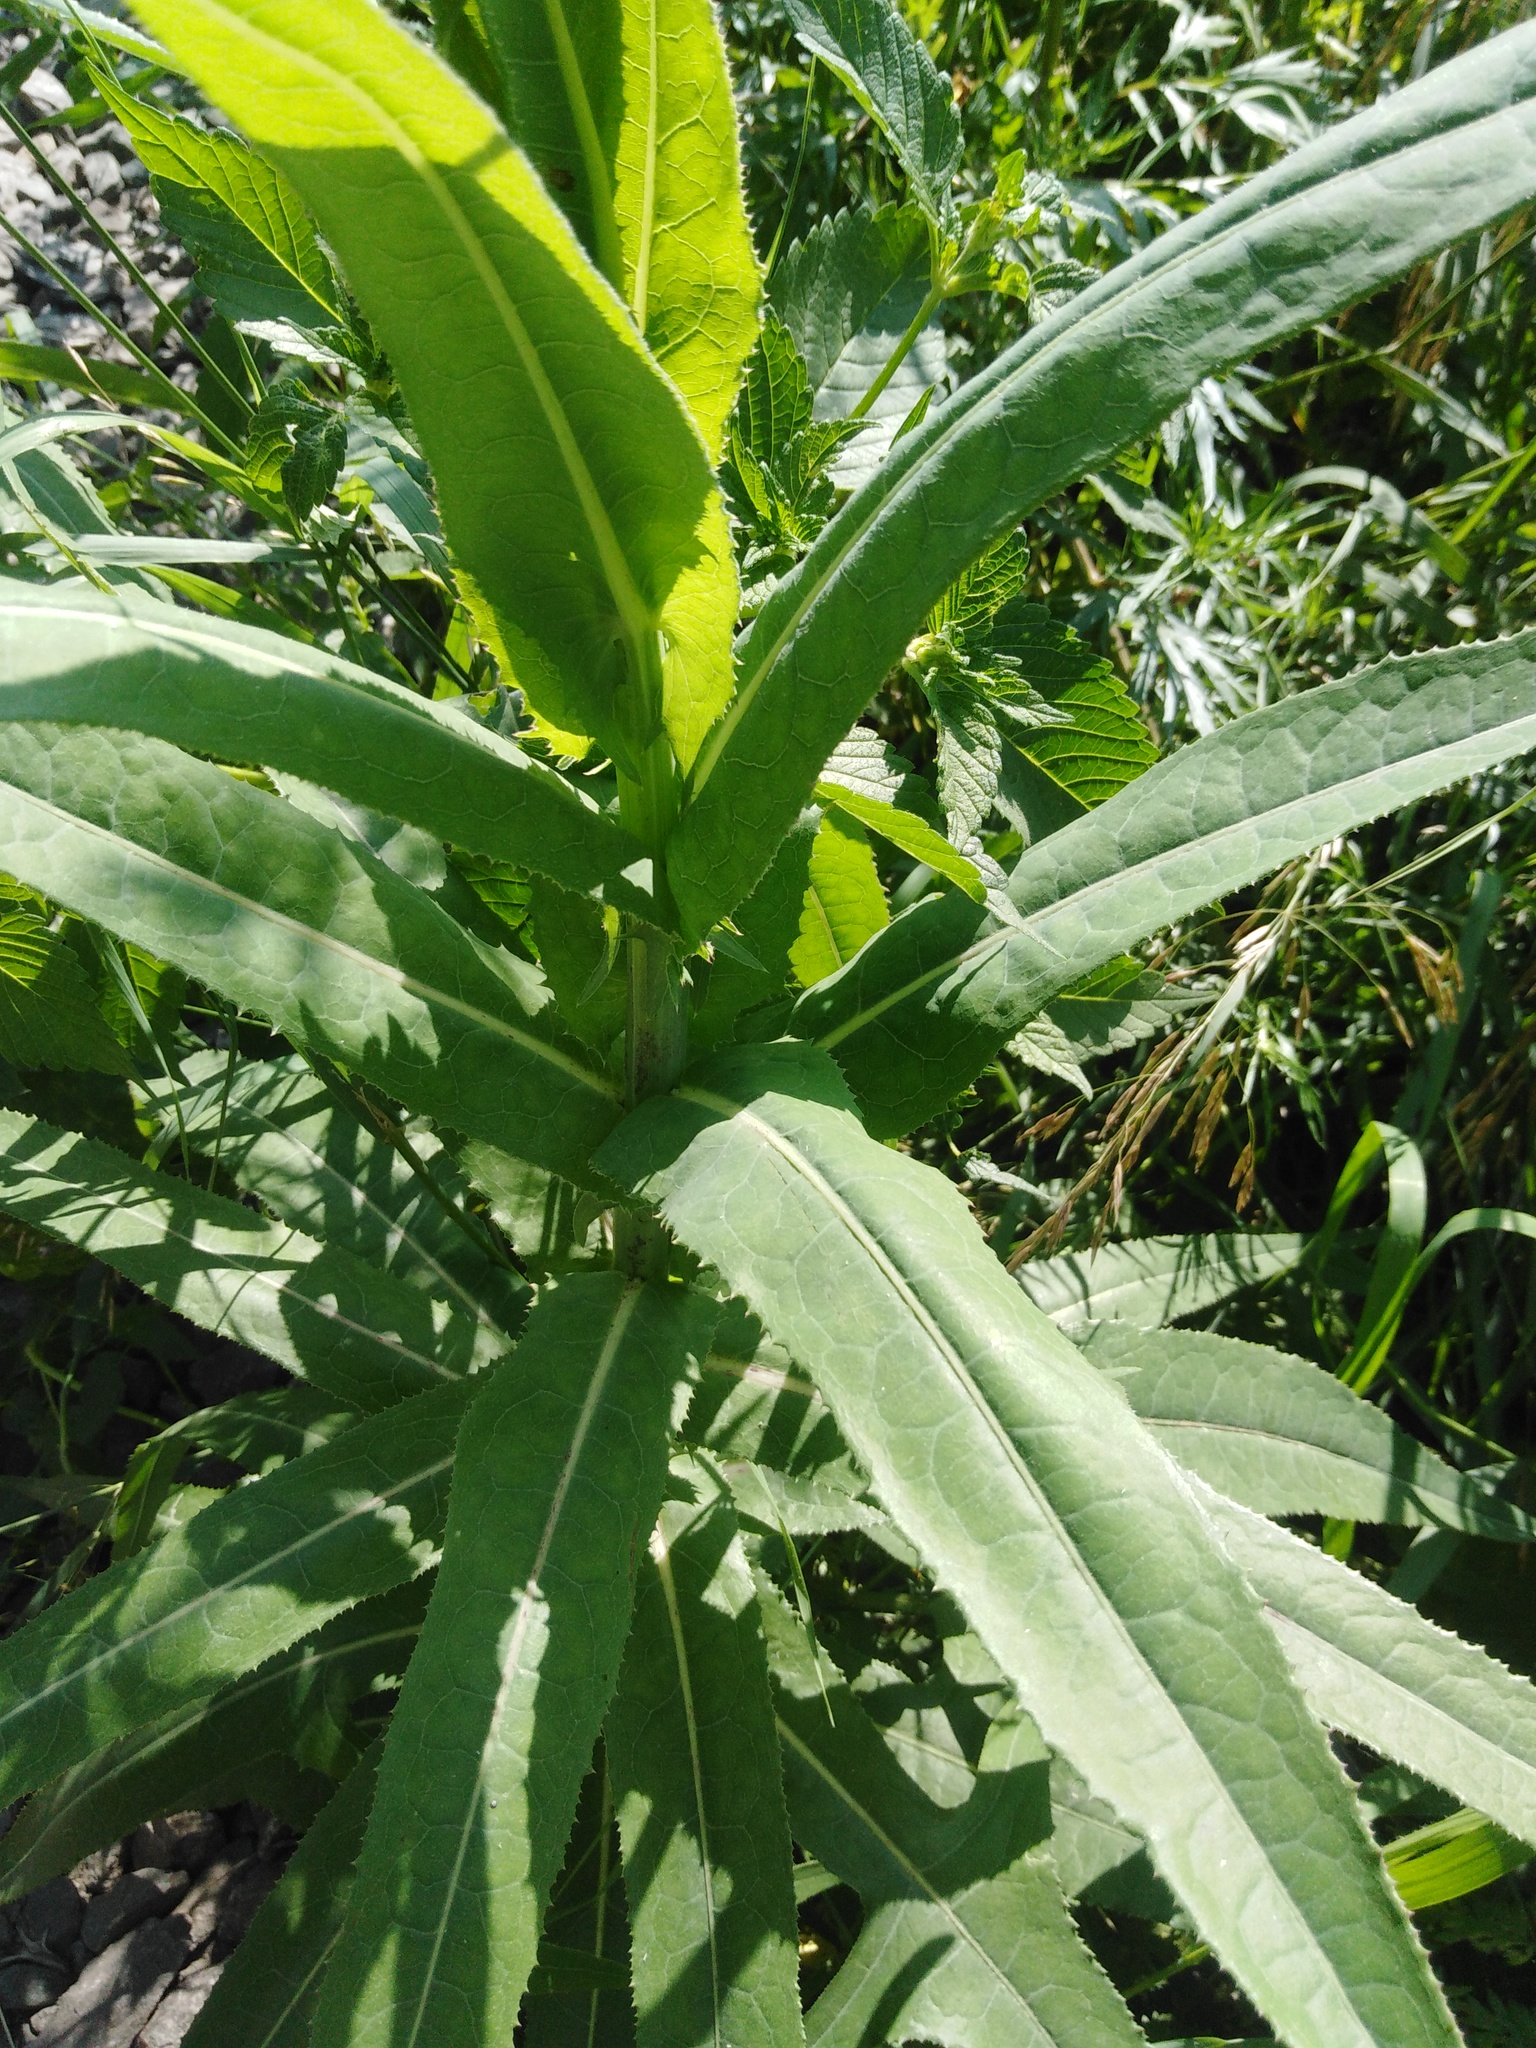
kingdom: Plantae
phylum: Tracheophyta
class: Magnoliopsida
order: Asterales
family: Asteraceae
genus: Sonchus
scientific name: Sonchus palustris
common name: Marsh sow-thistle
